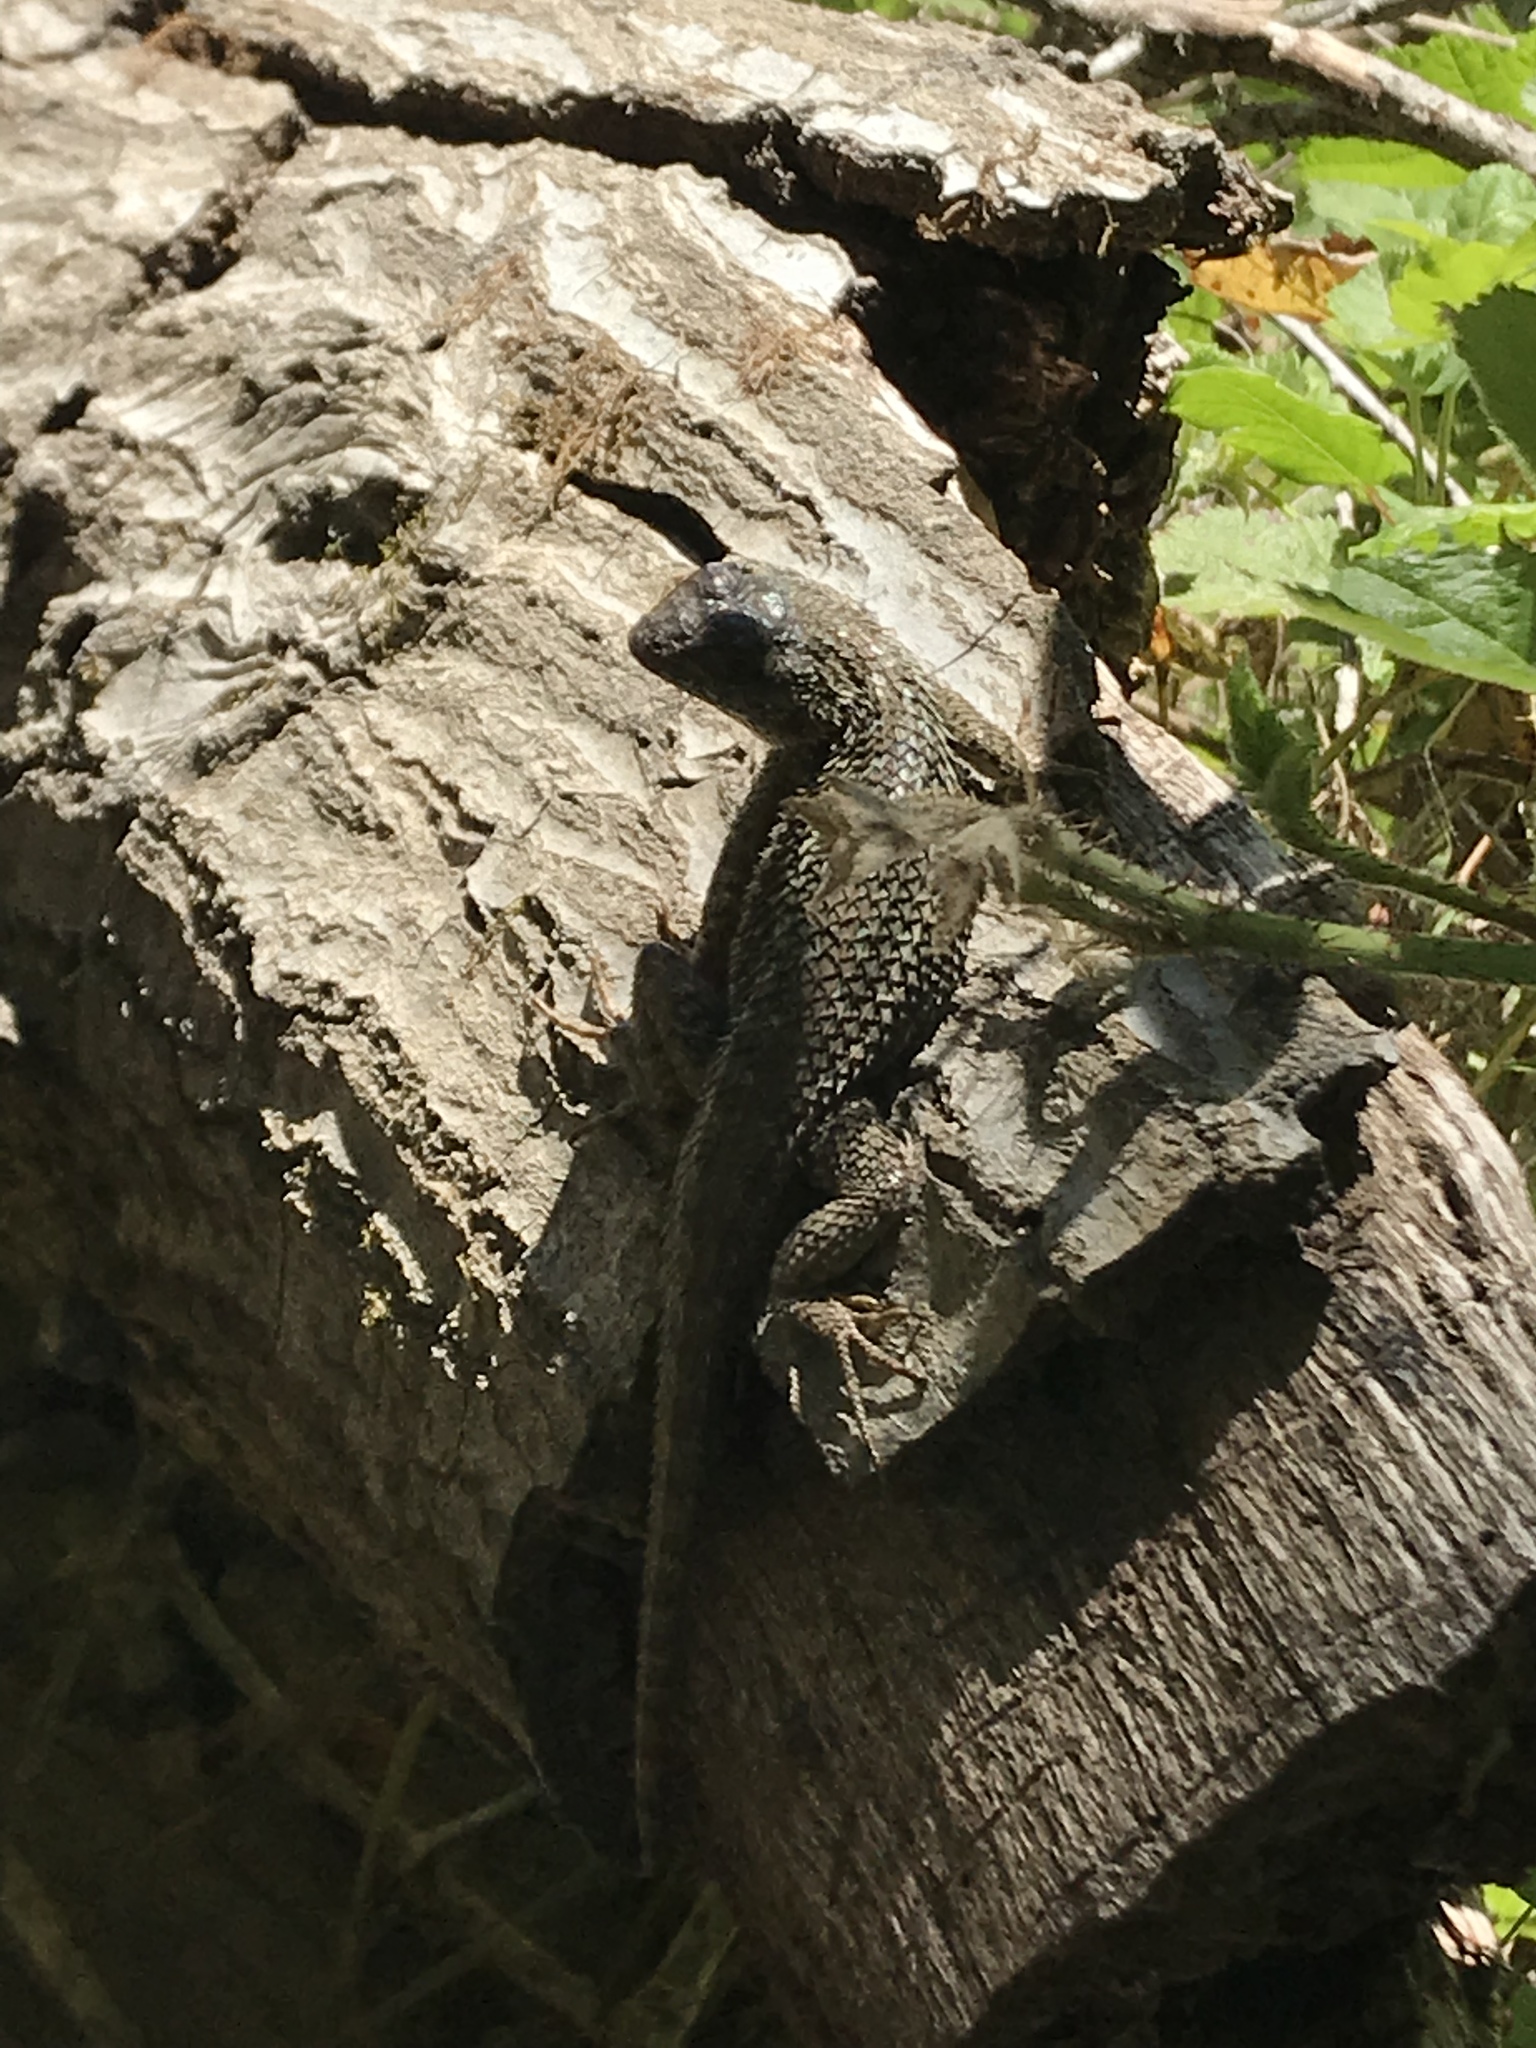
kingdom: Animalia
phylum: Chordata
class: Squamata
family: Phrynosomatidae
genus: Sceloporus
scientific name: Sceloporus occidentalis
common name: Western fence lizard
